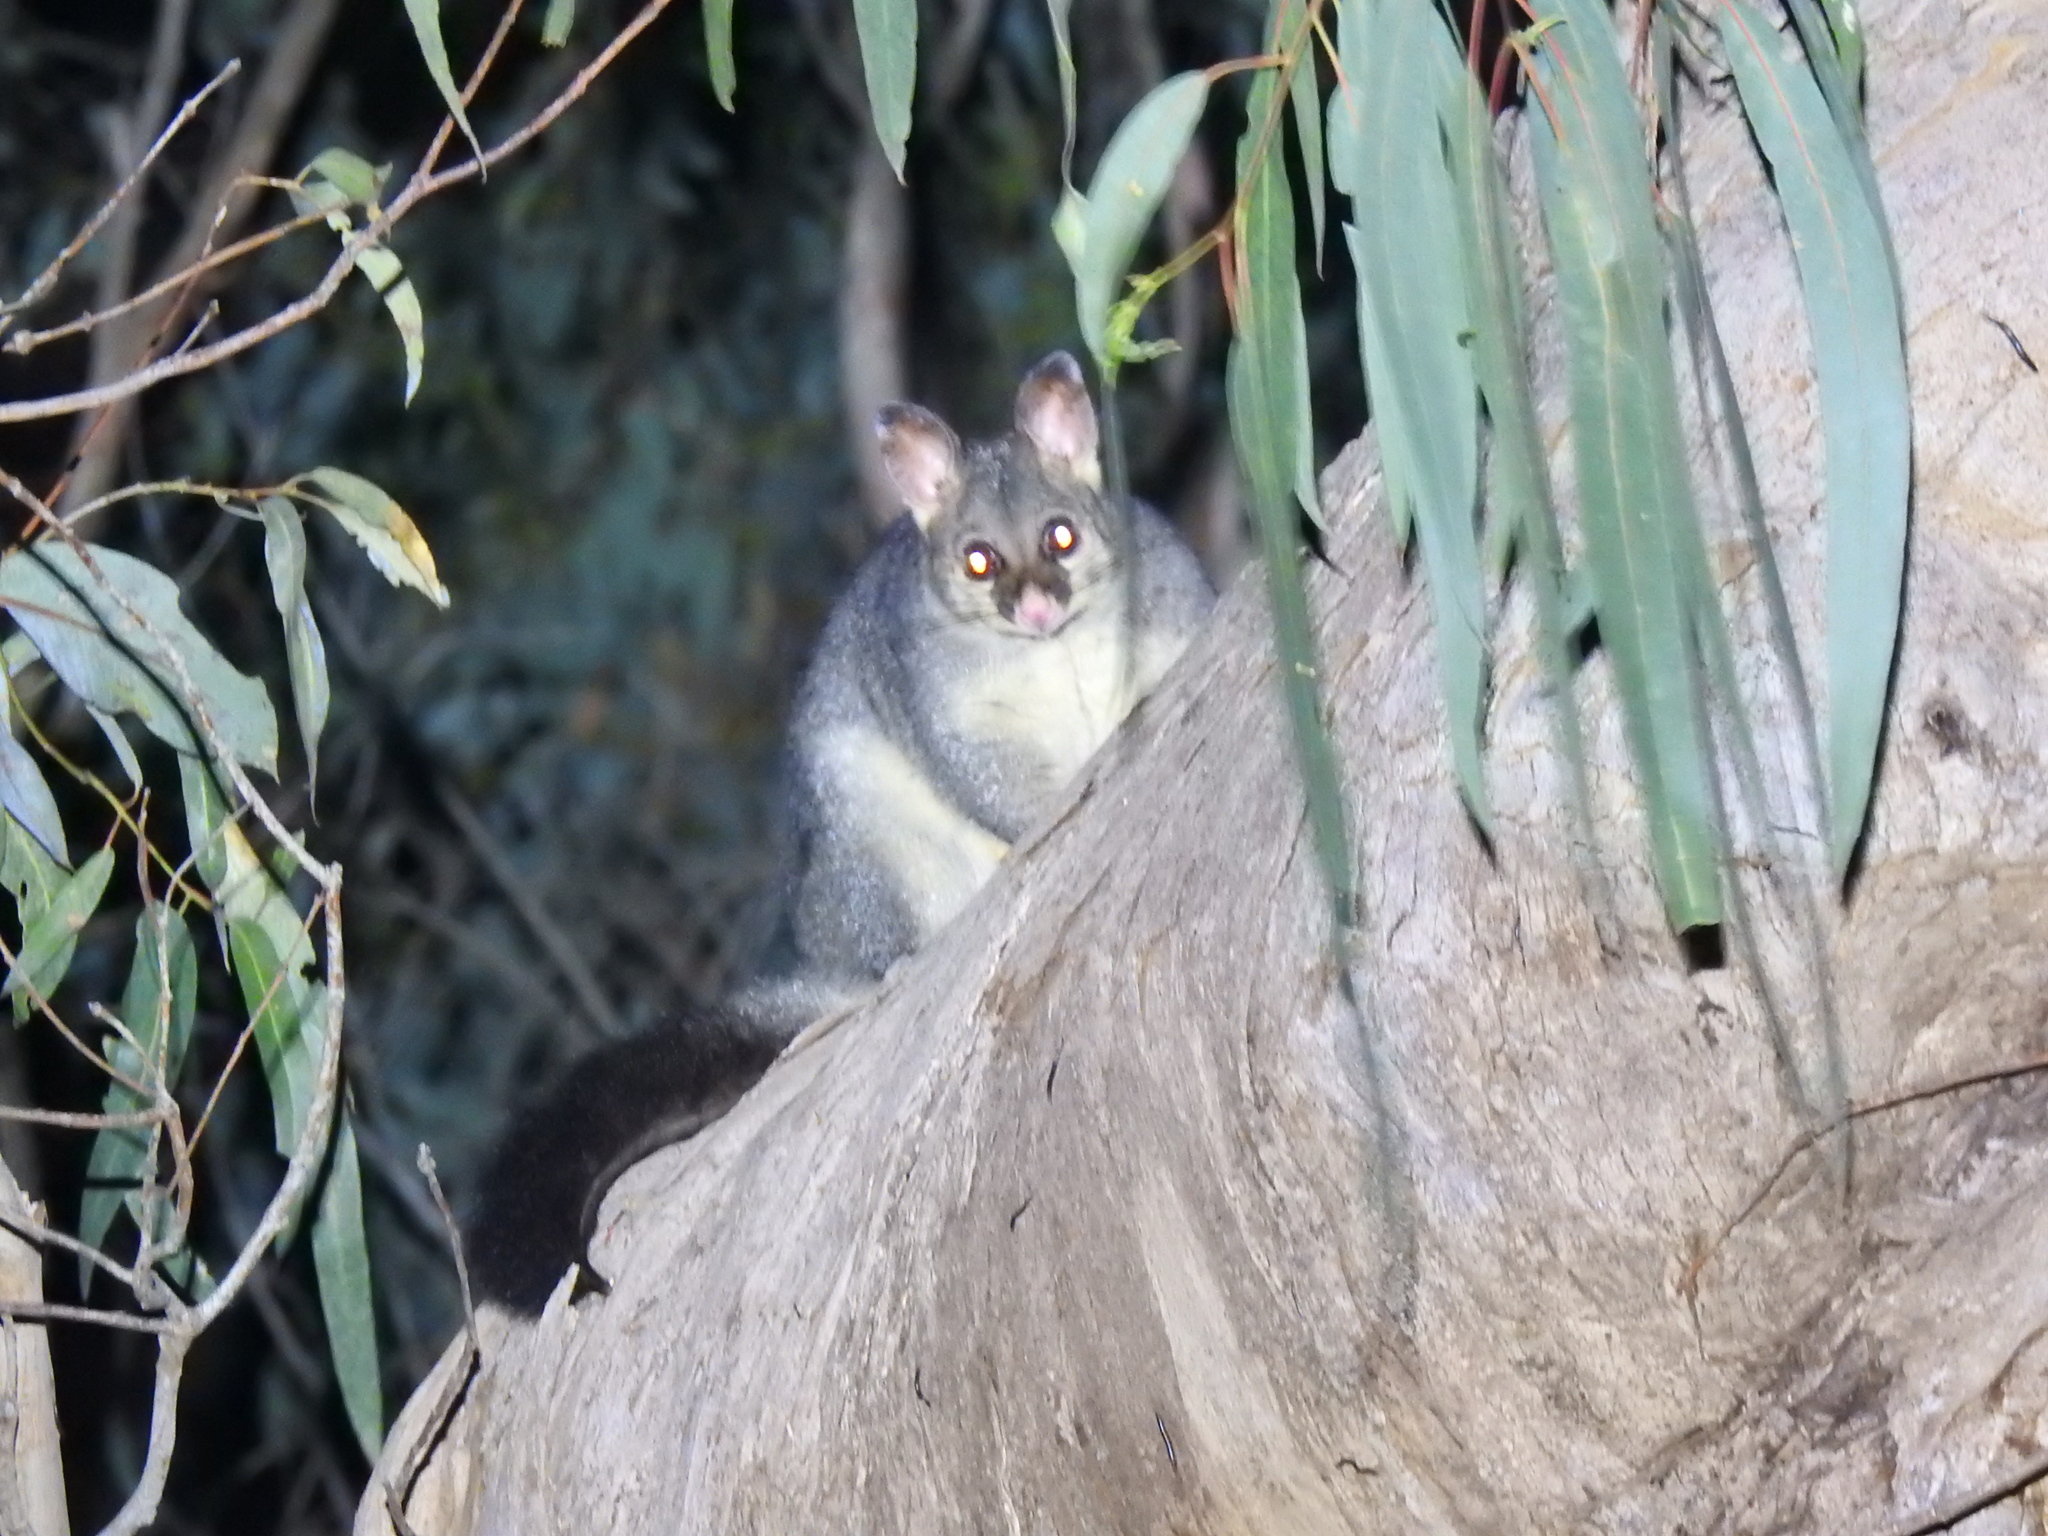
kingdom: Animalia
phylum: Chordata
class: Mammalia
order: Diprotodontia
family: Phalangeridae
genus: Trichosurus
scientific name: Trichosurus vulpecula
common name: Common brushtail
